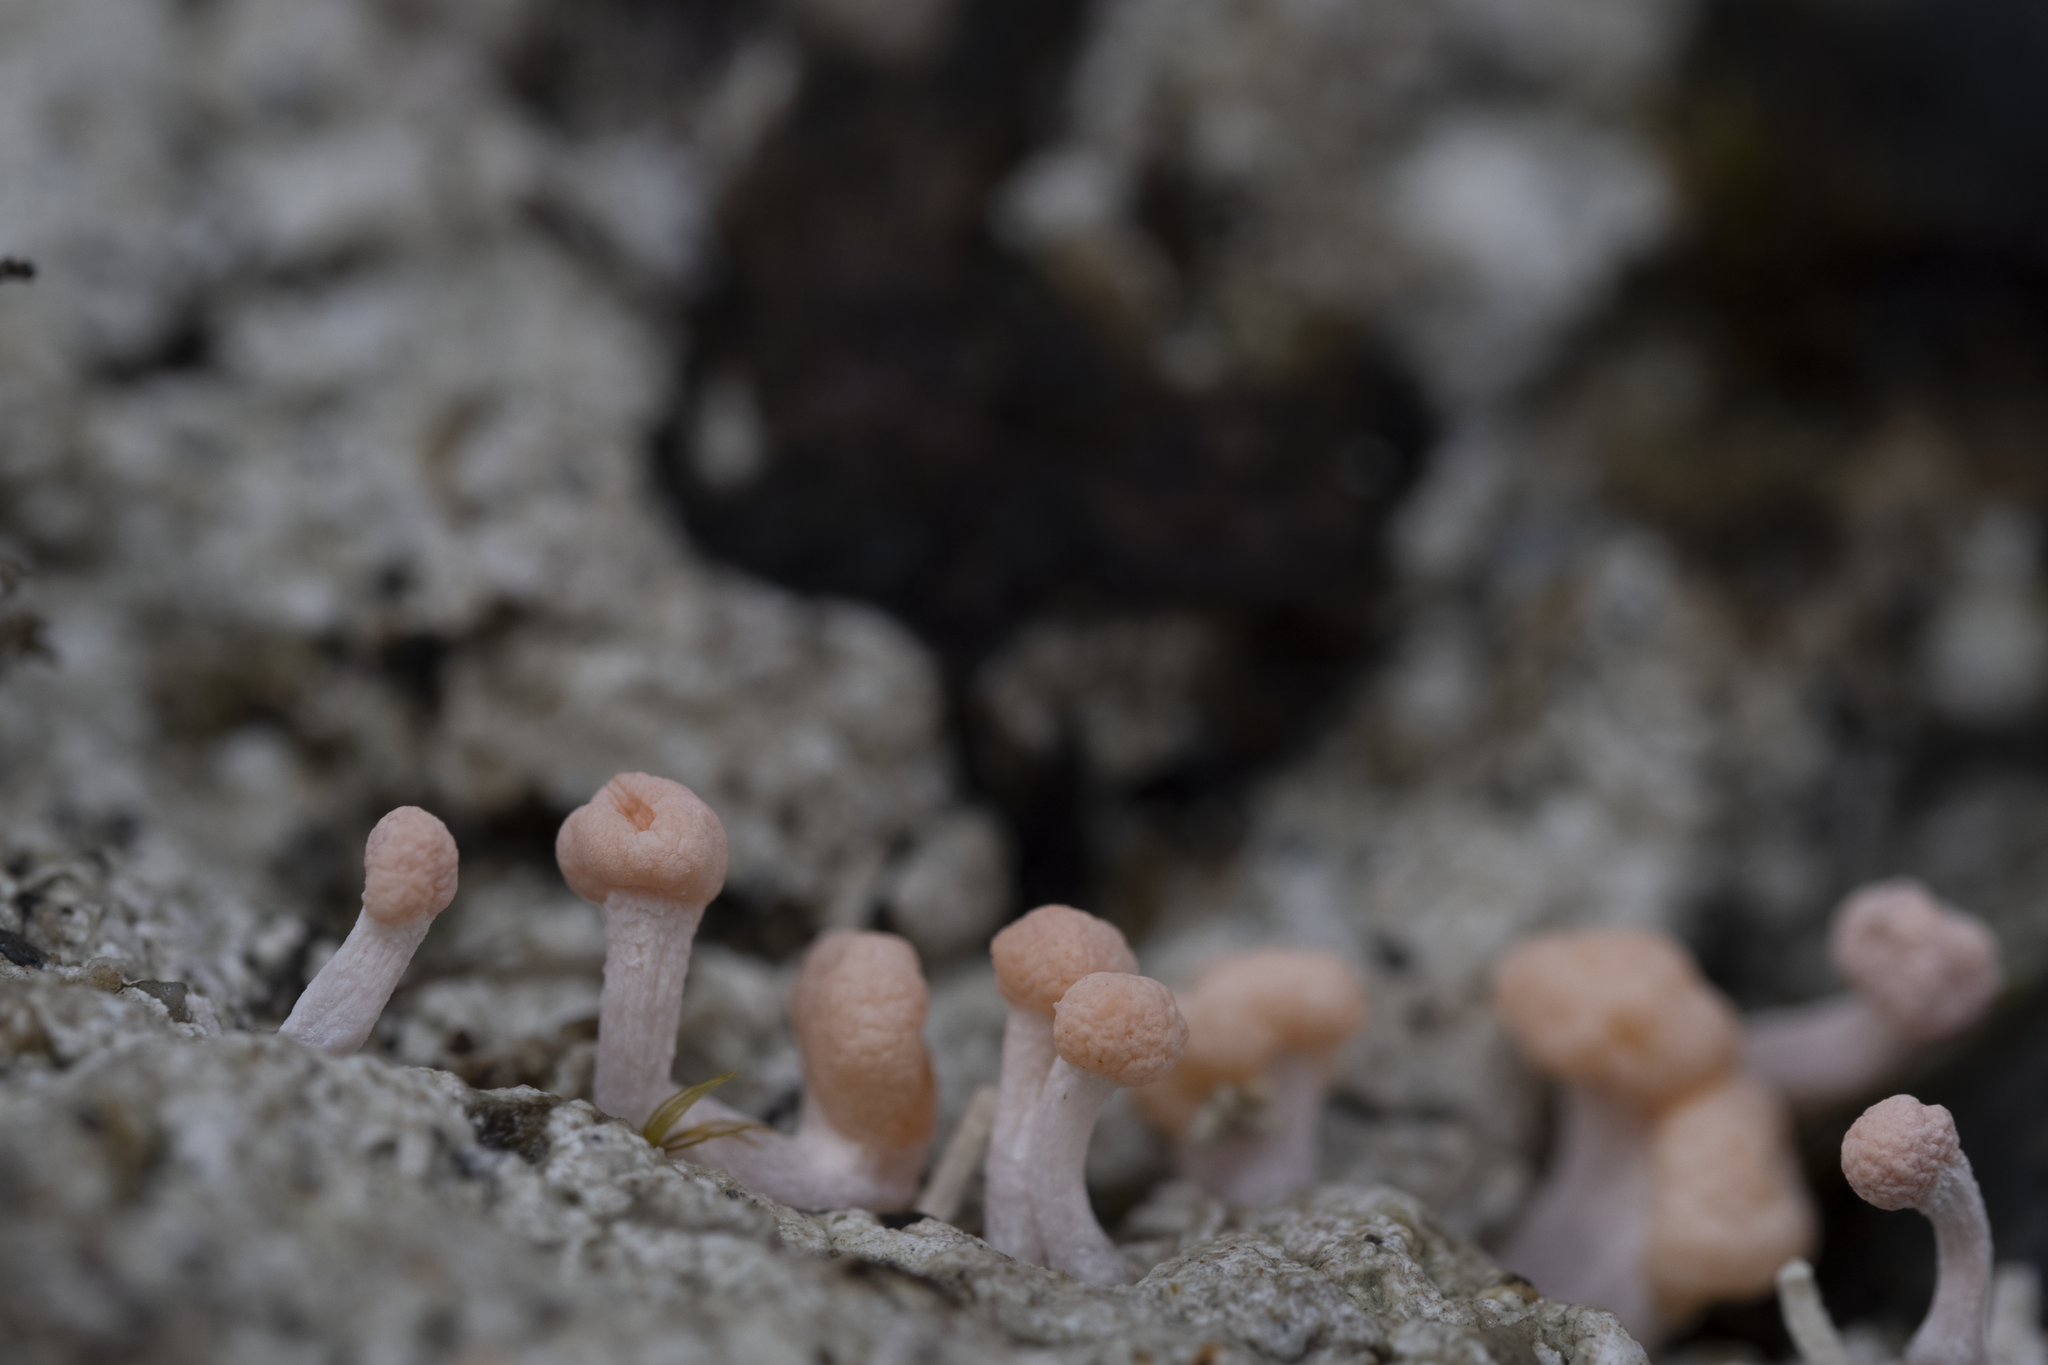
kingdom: Fungi
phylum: Ascomycota
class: Lecanoromycetes
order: Pertusariales
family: Icmadophilaceae
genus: Dibaeis
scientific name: Dibaeis arcuata
